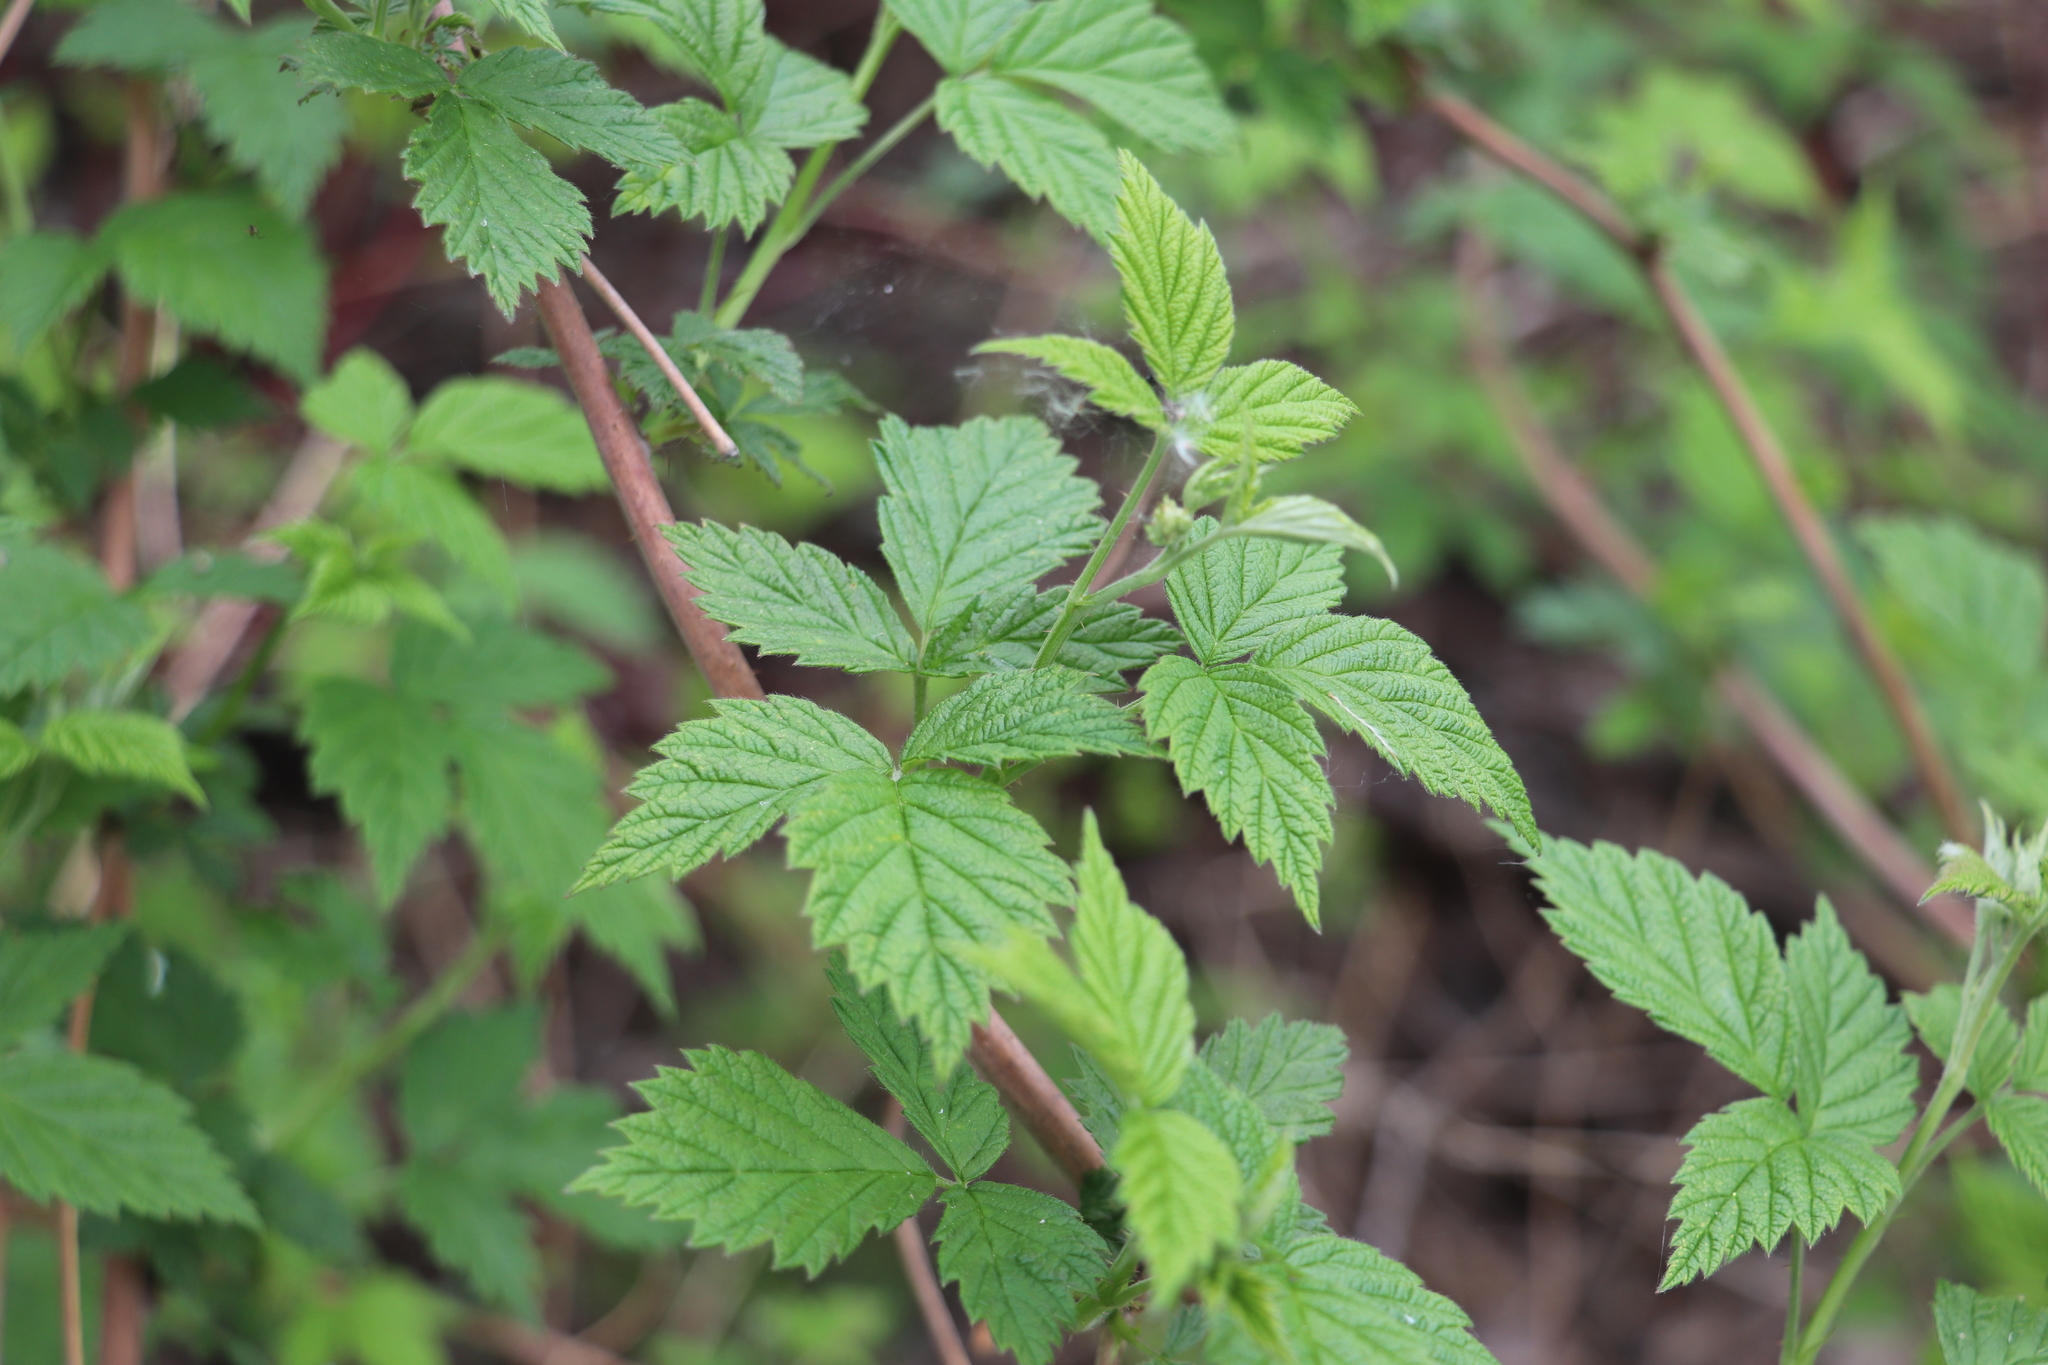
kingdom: Plantae
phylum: Tracheophyta
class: Magnoliopsida
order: Rosales
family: Rosaceae
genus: Rubus
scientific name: Rubus sachalinensis
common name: Red raspberry
